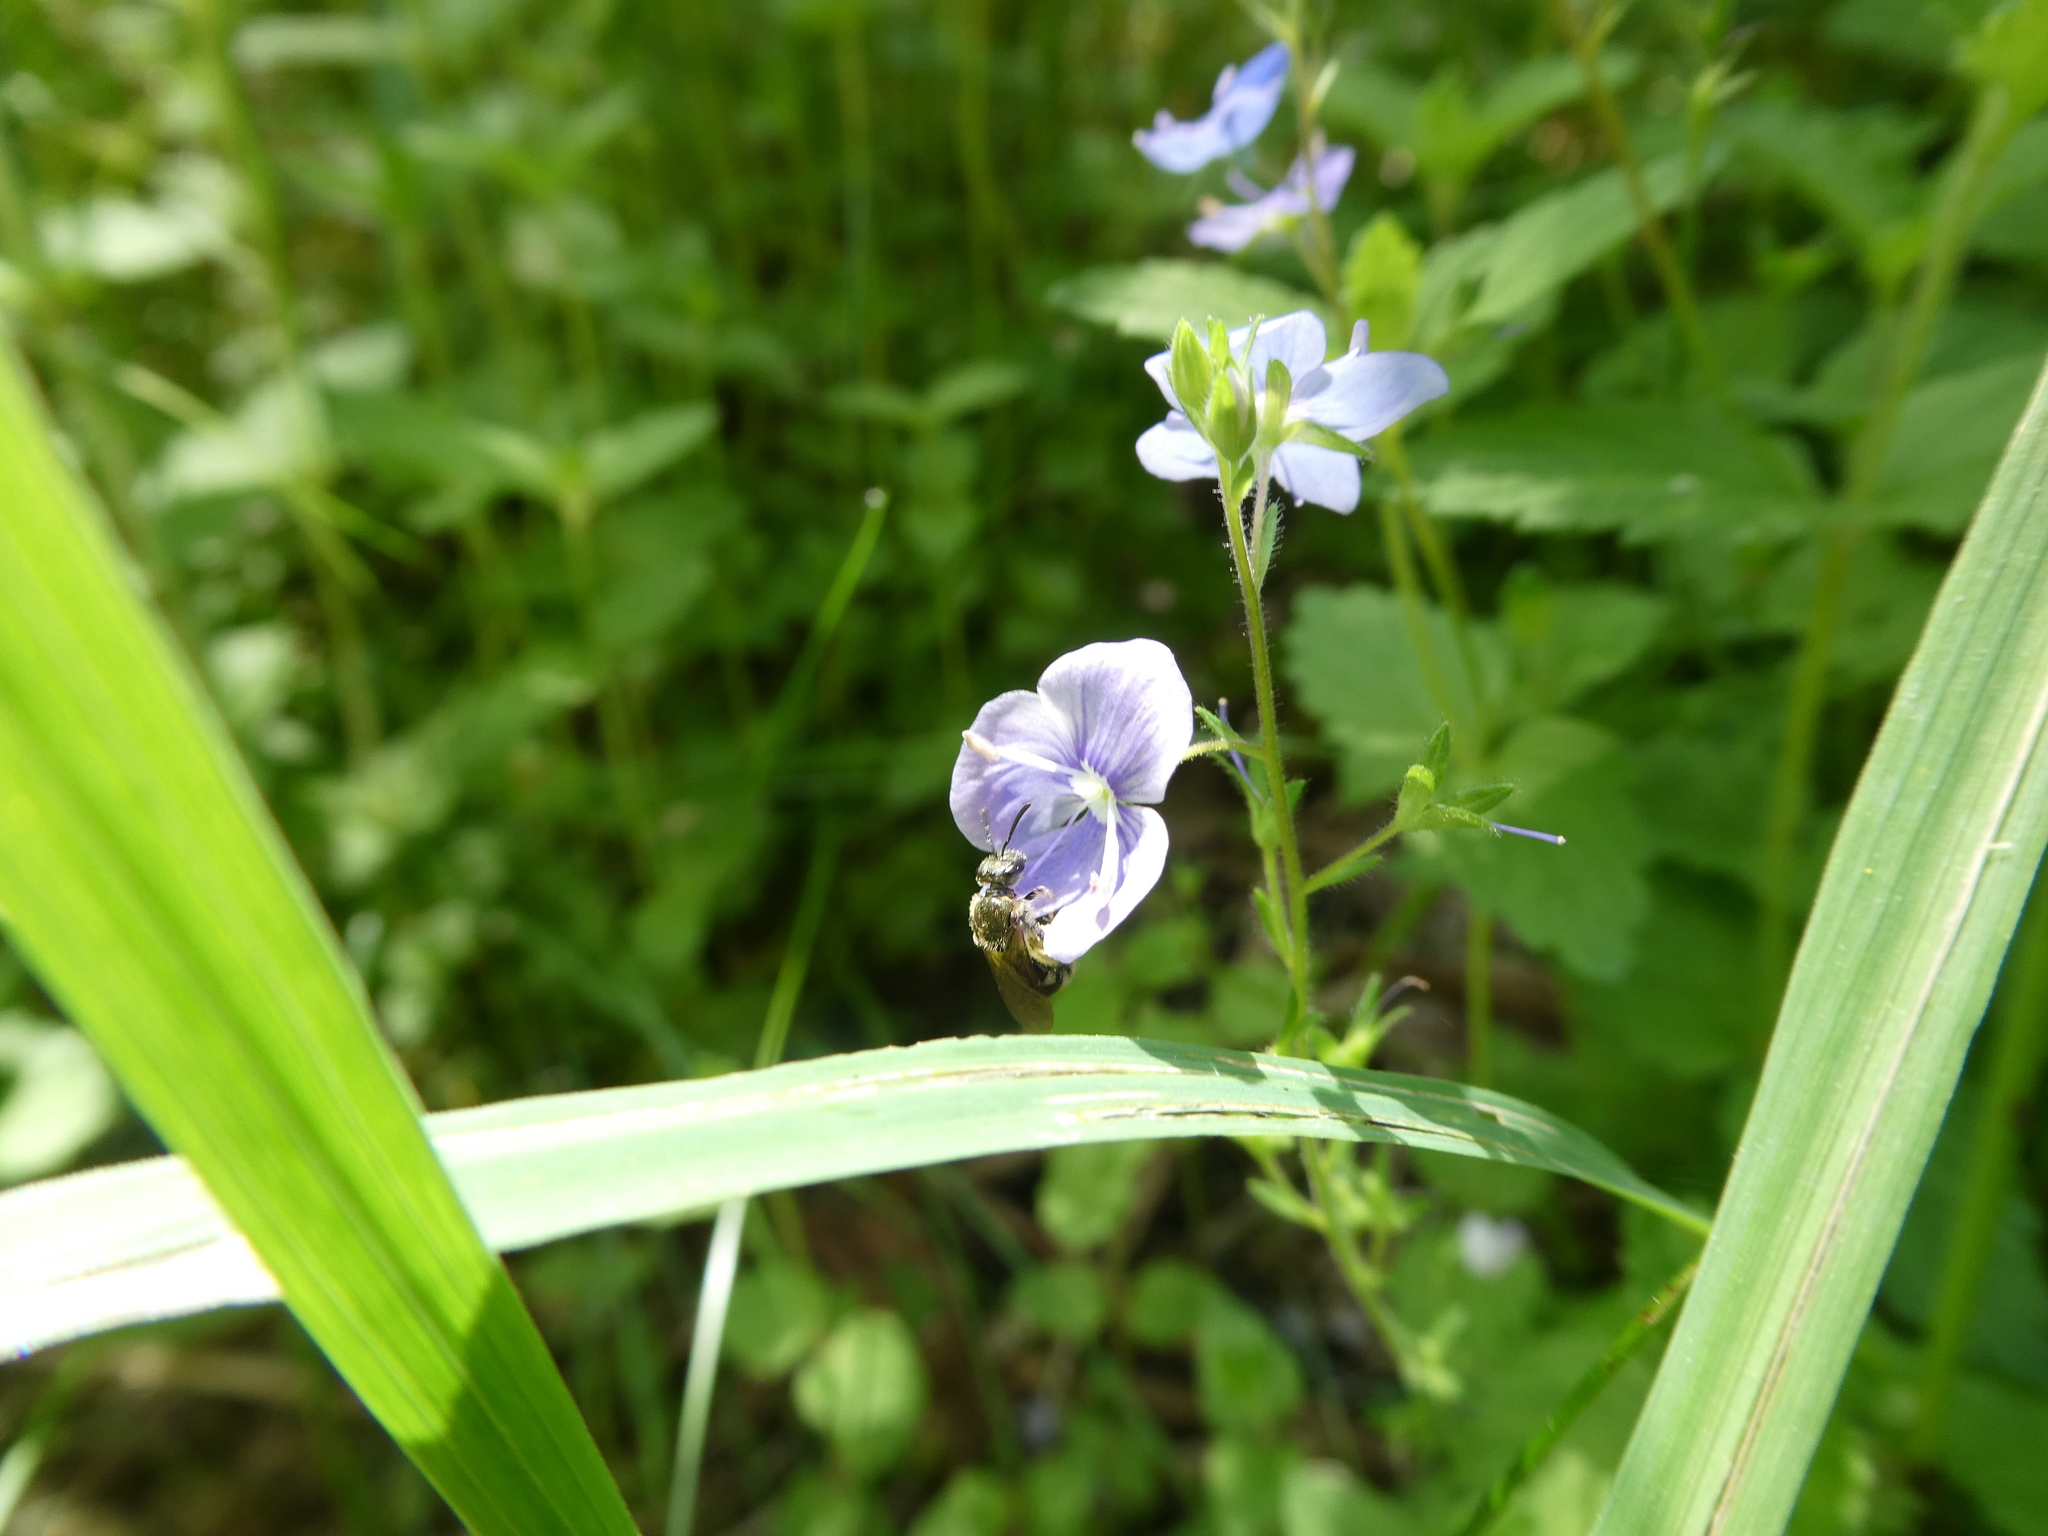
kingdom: Plantae
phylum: Tracheophyta
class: Magnoliopsida
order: Lamiales
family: Plantaginaceae
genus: Veronica
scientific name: Veronica chamaedrys
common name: Germander speedwell
